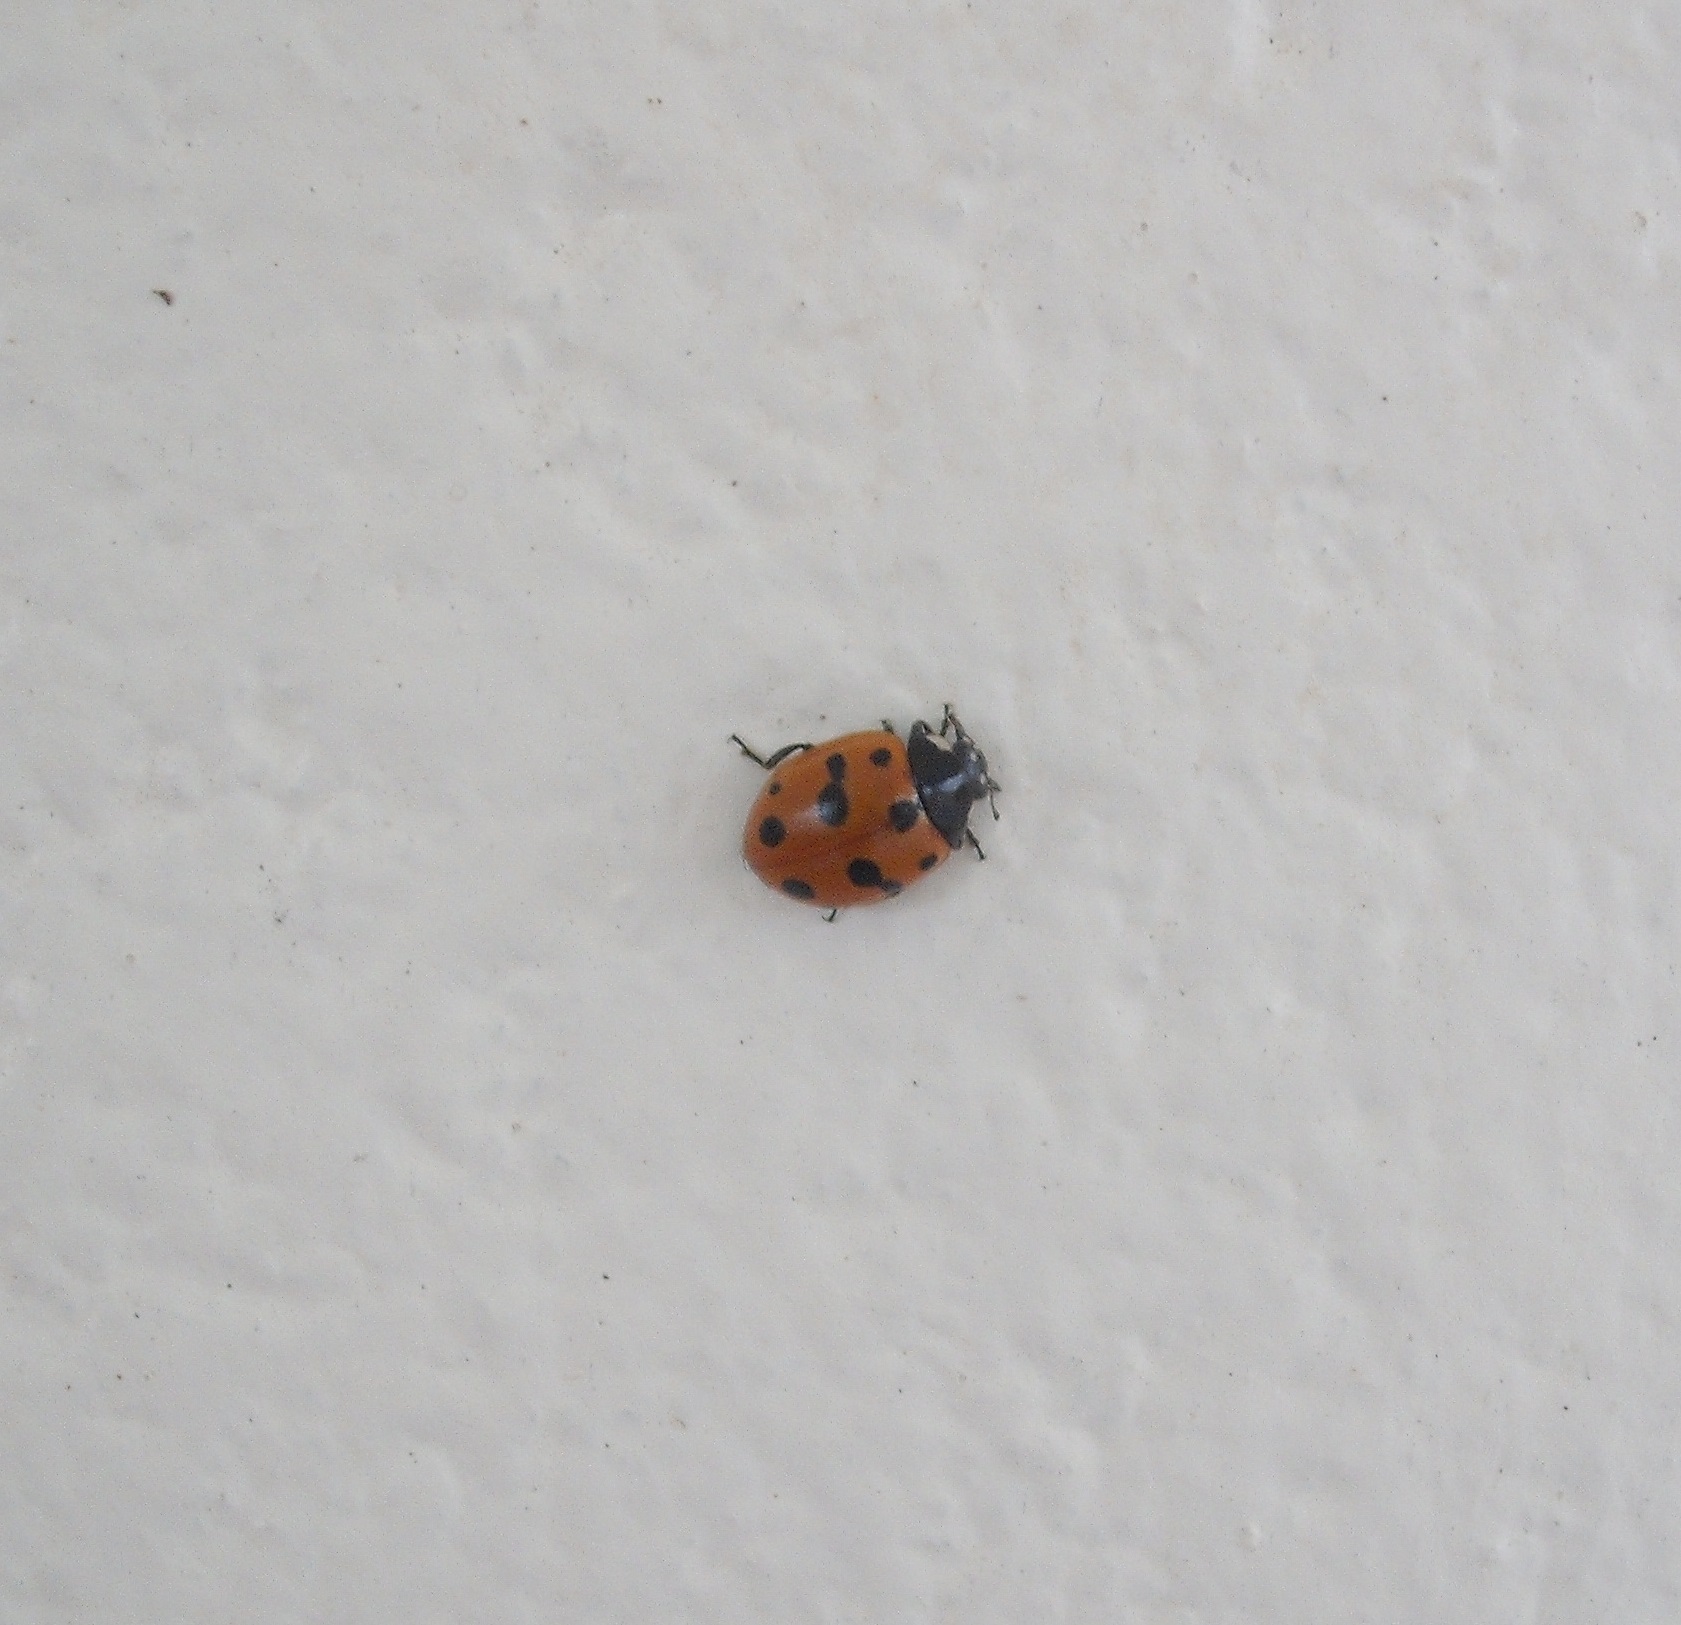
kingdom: Animalia
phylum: Arthropoda
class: Insecta
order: Coleoptera
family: Coccinellidae
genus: Coccinella
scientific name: Coccinella undecimpunctata
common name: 11-spot ladybird
